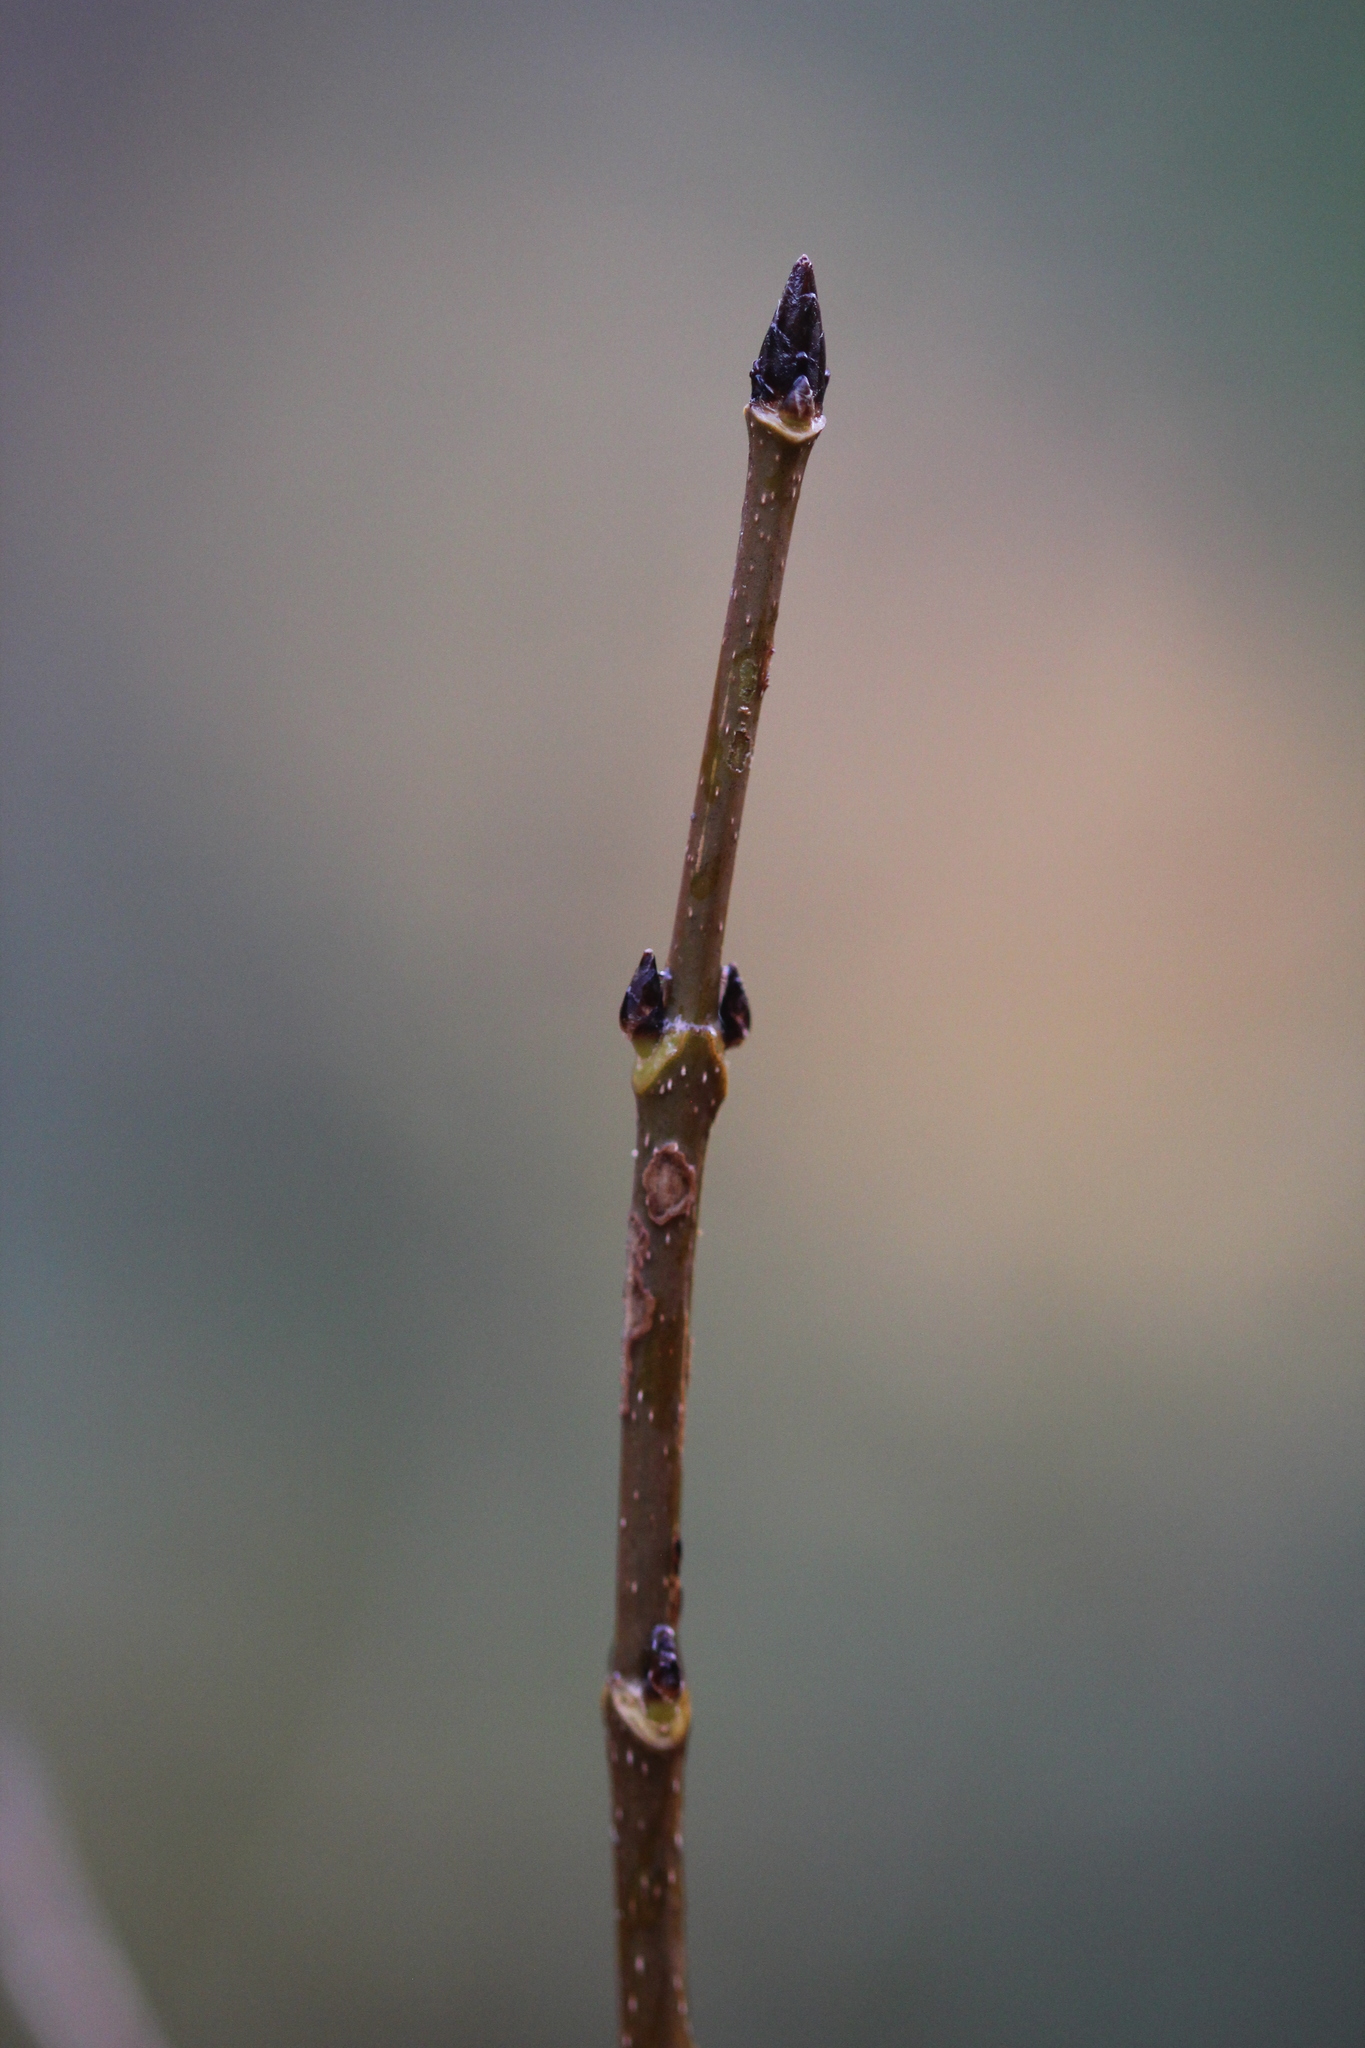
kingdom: Plantae
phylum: Tracheophyta
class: Magnoliopsida
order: Sapindales
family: Sapindaceae
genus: Acer
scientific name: Acer saccharum
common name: Sugar maple
